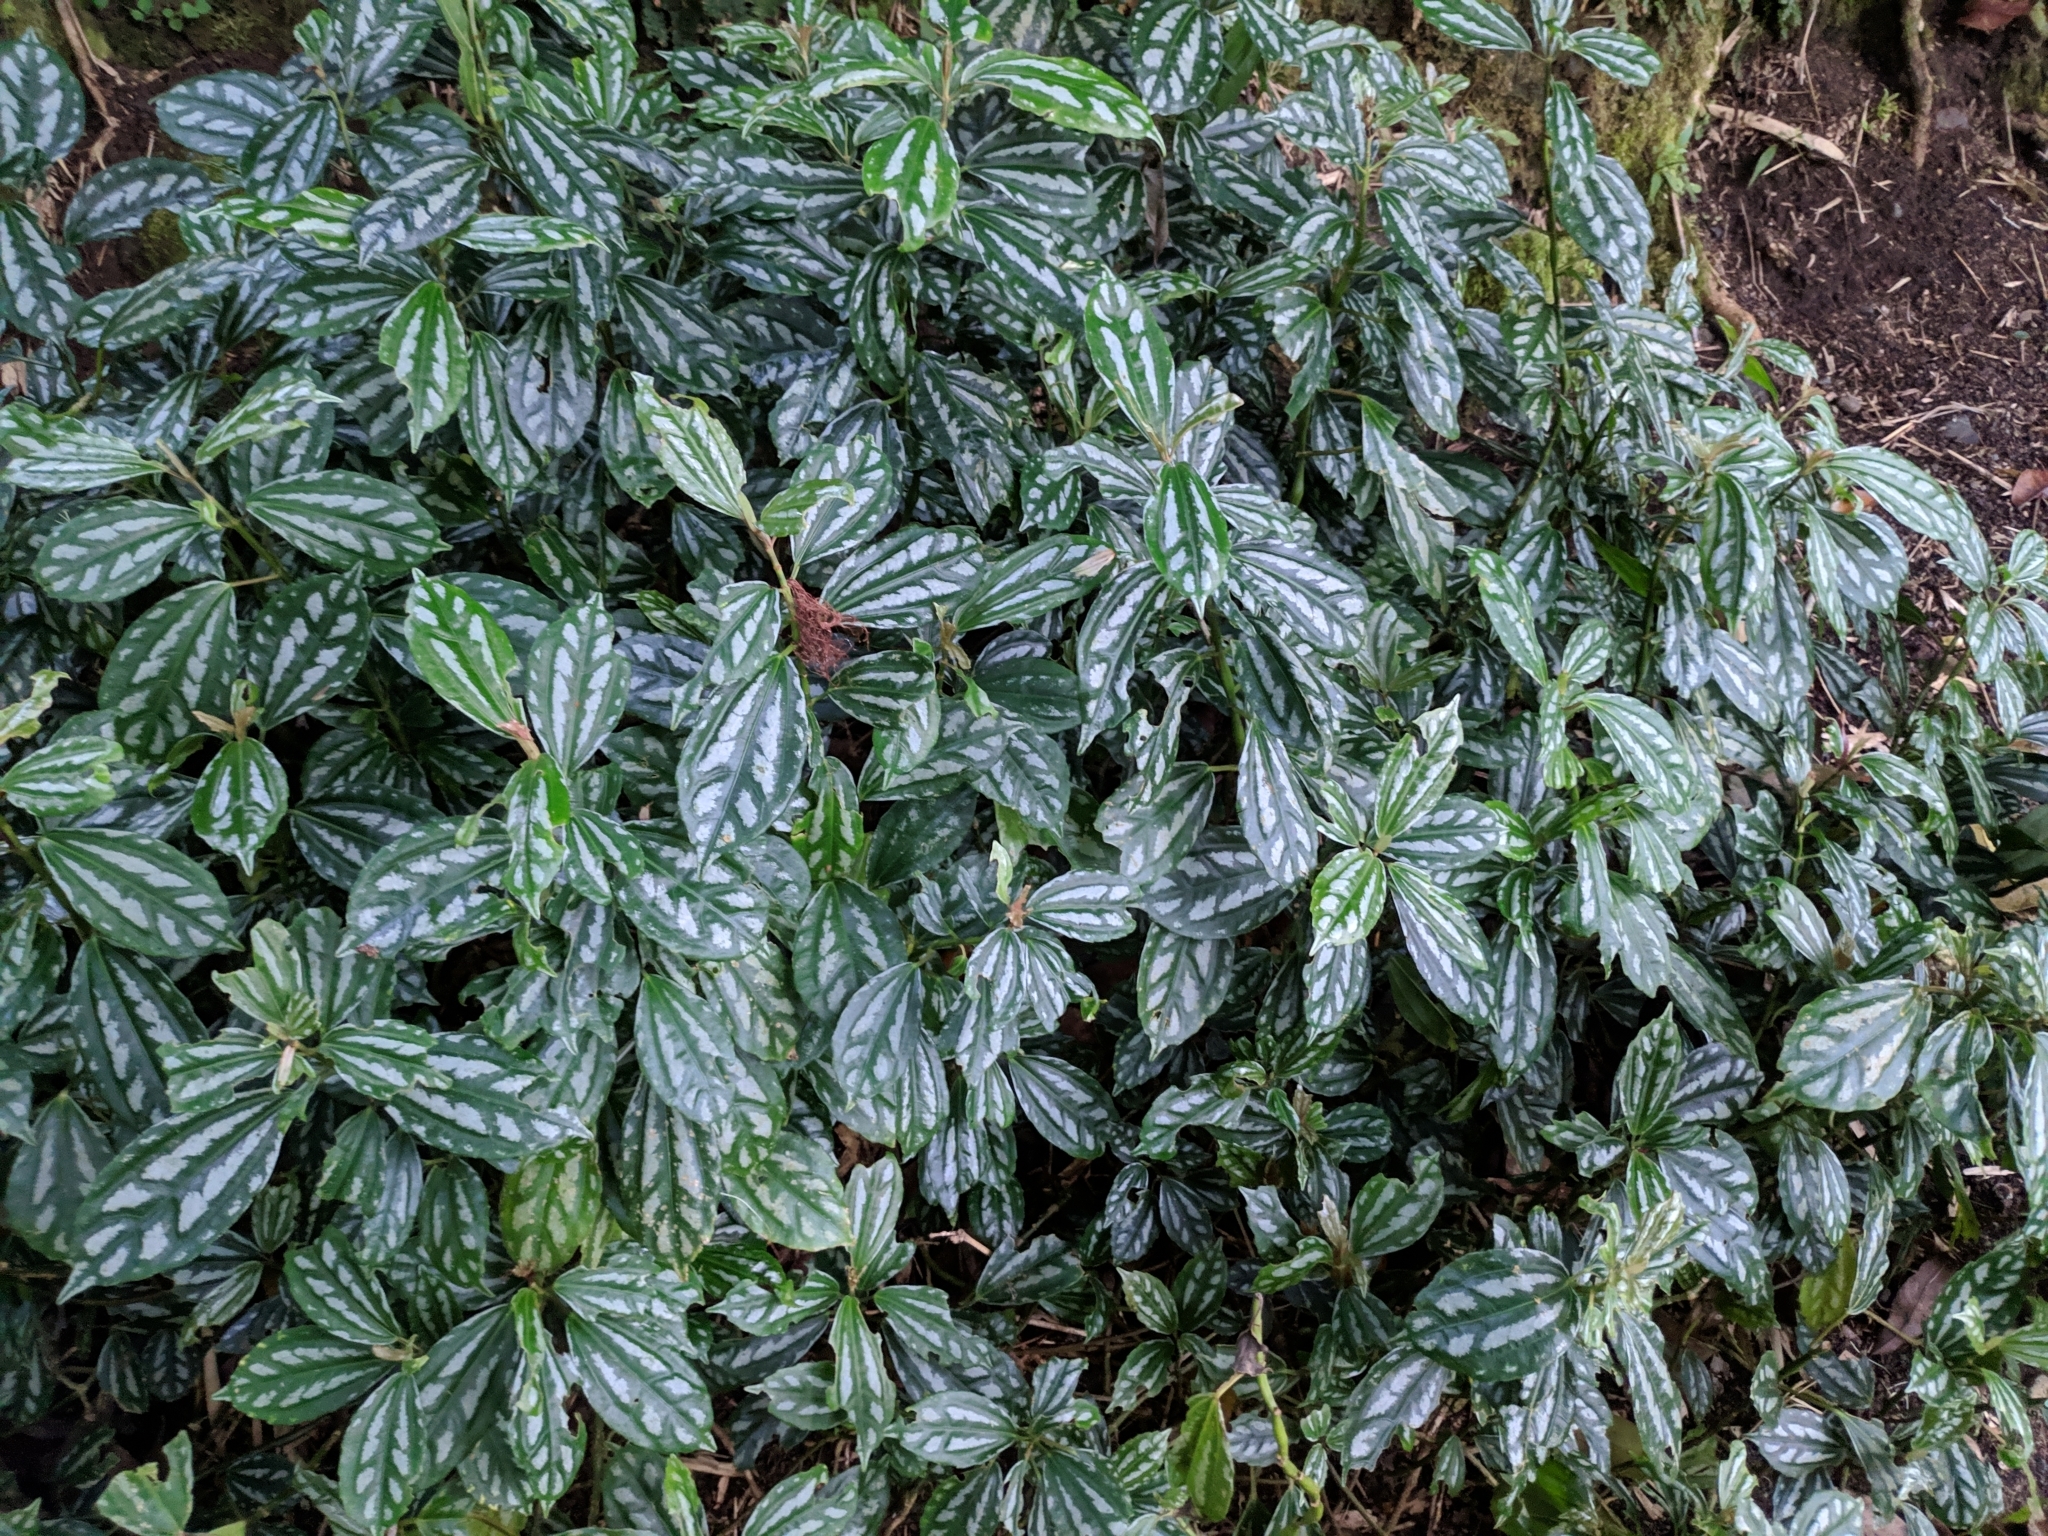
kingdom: Plantae
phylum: Tracheophyta
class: Magnoliopsida
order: Rosales
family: Urticaceae
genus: Pilea
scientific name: Pilea cadierei
